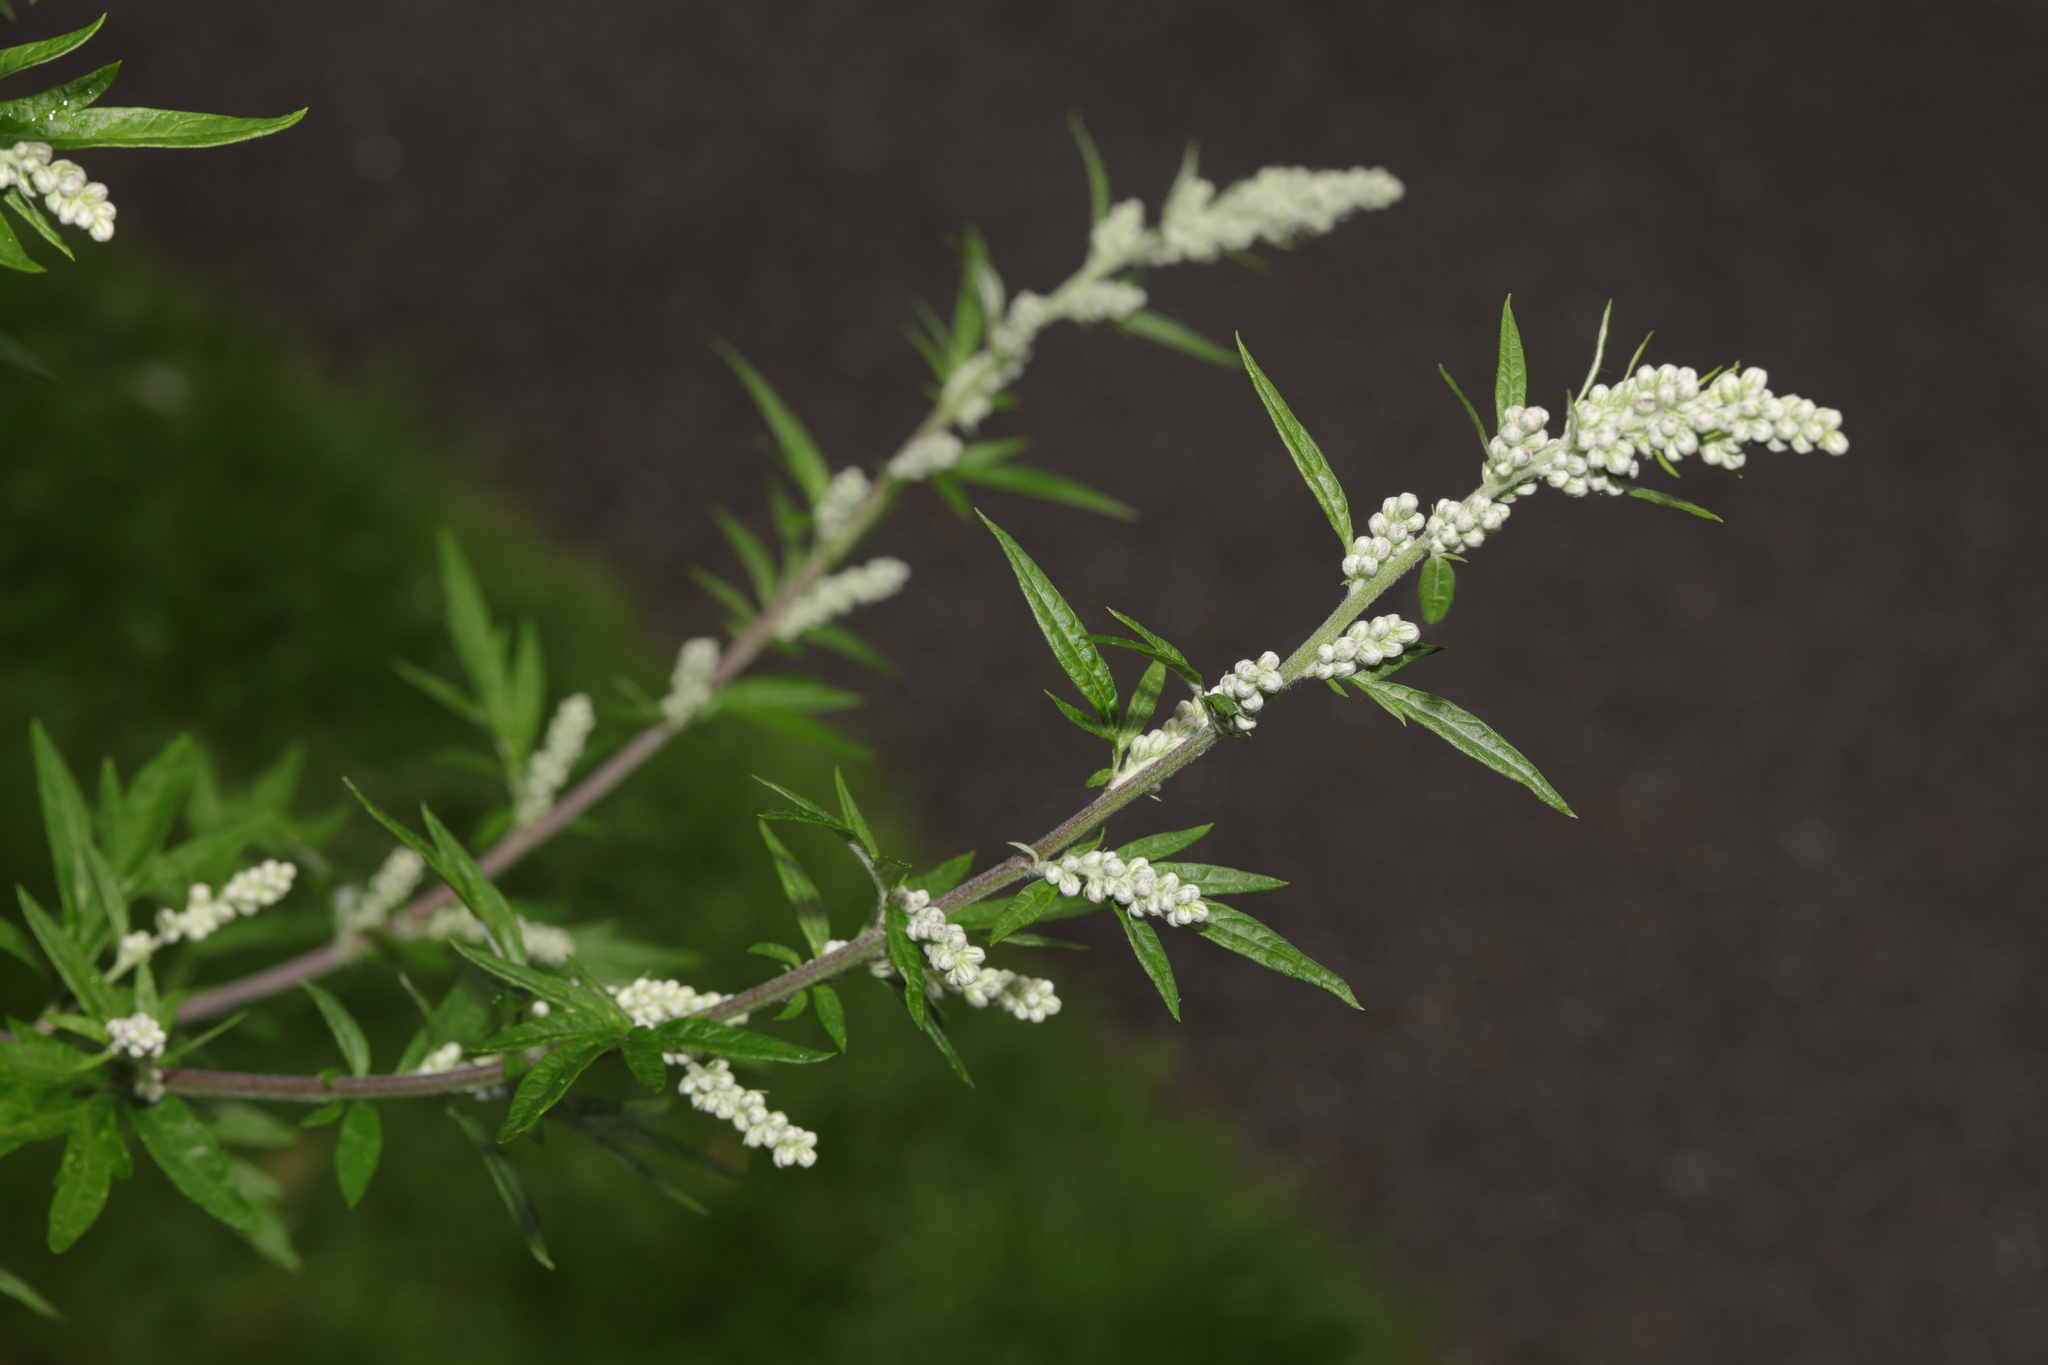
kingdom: Plantae
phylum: Tracheophyta
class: Magnoliopsida
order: Asterales
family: Asteraceae
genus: Artemisia
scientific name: Artemisia vulgaris
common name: Mugwort
